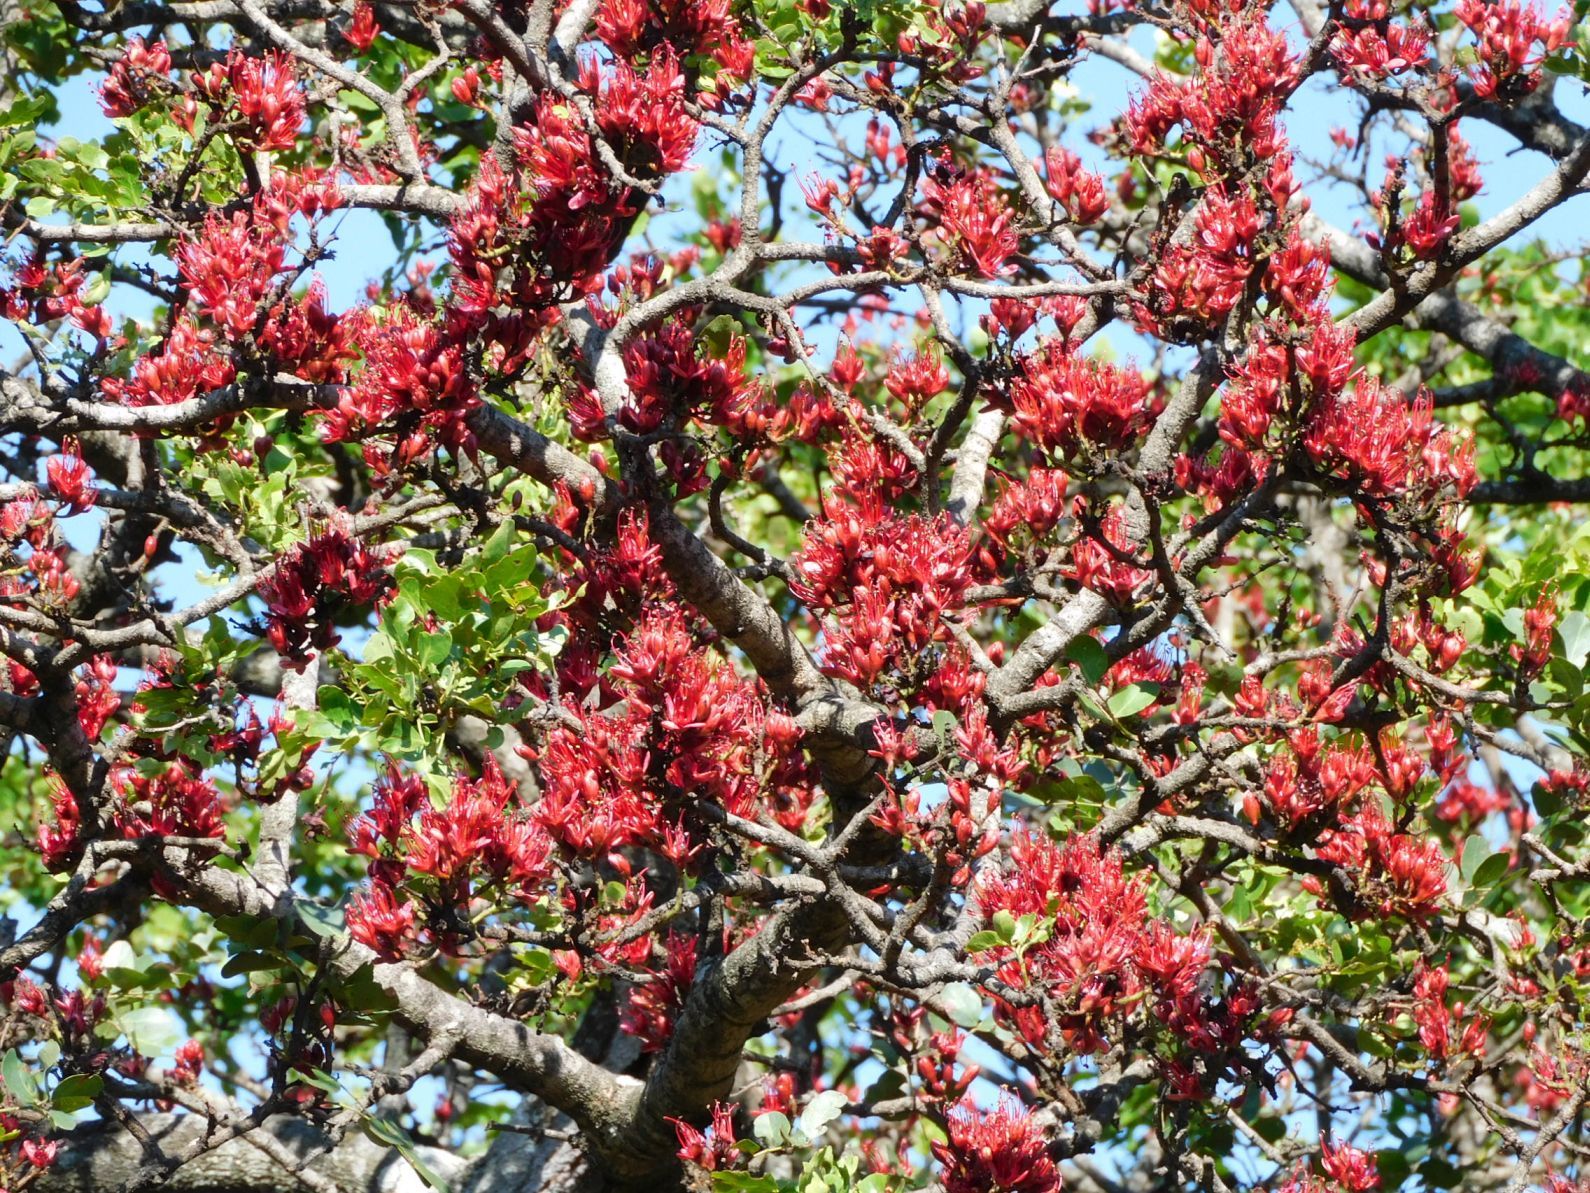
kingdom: Plantae
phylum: Tracheophyta
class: Magnoliopsida
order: Fabales
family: Fabaceae
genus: Schotia
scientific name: Schotia brachypetala
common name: Weeping boer-bean
